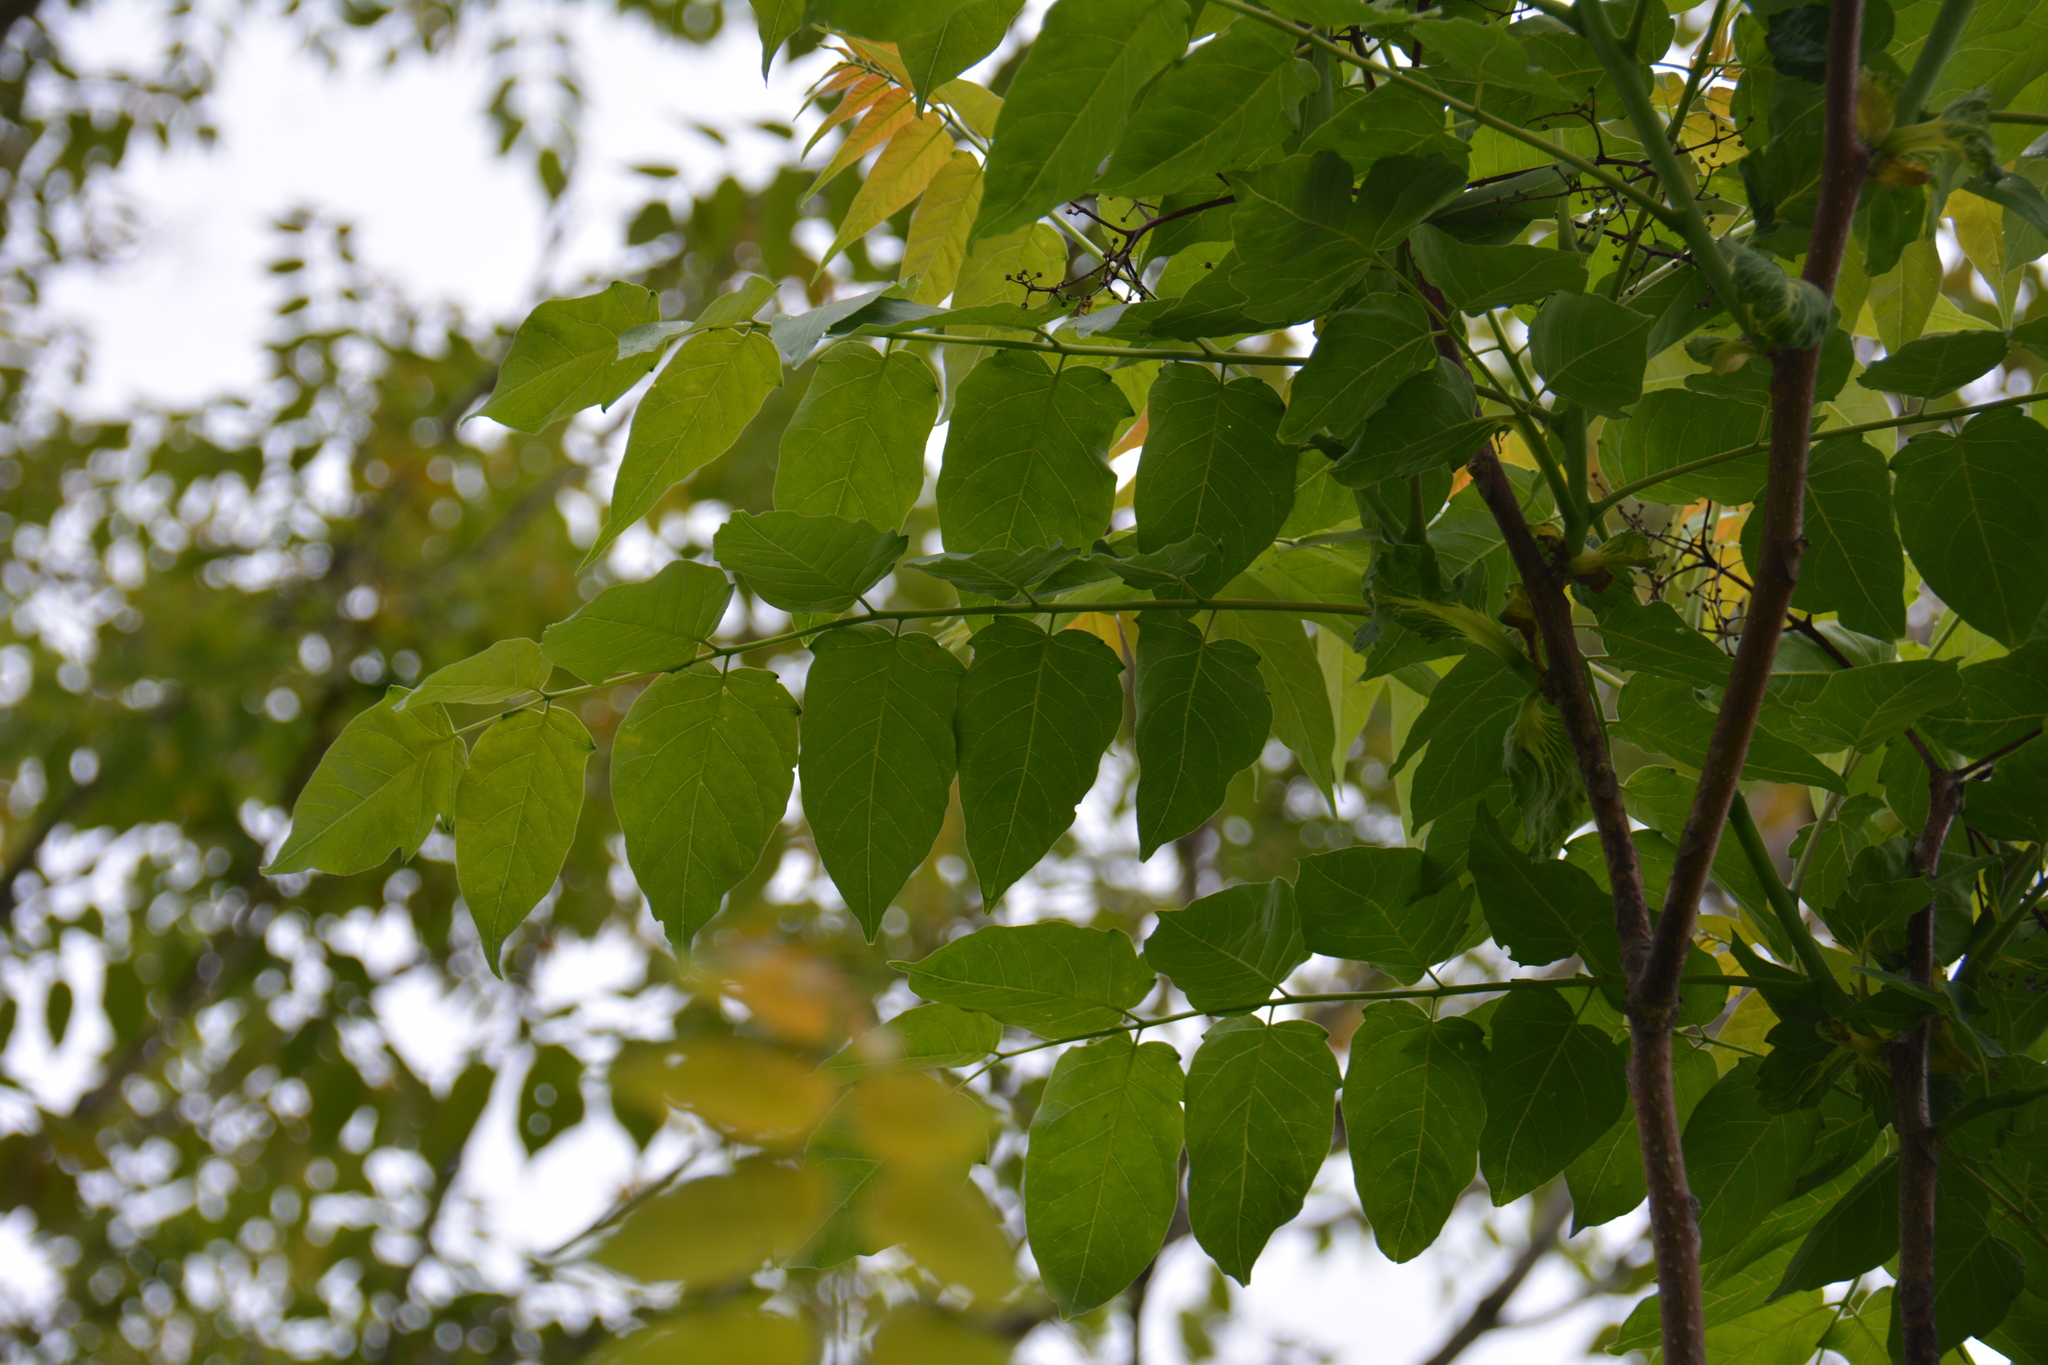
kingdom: Plantae
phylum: Tracheophyta
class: Magnoliopsida
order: Sapindales
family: Simaroubaceae
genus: Ailanthus
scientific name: Ailanthus altissima
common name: Tree-of-heaven
